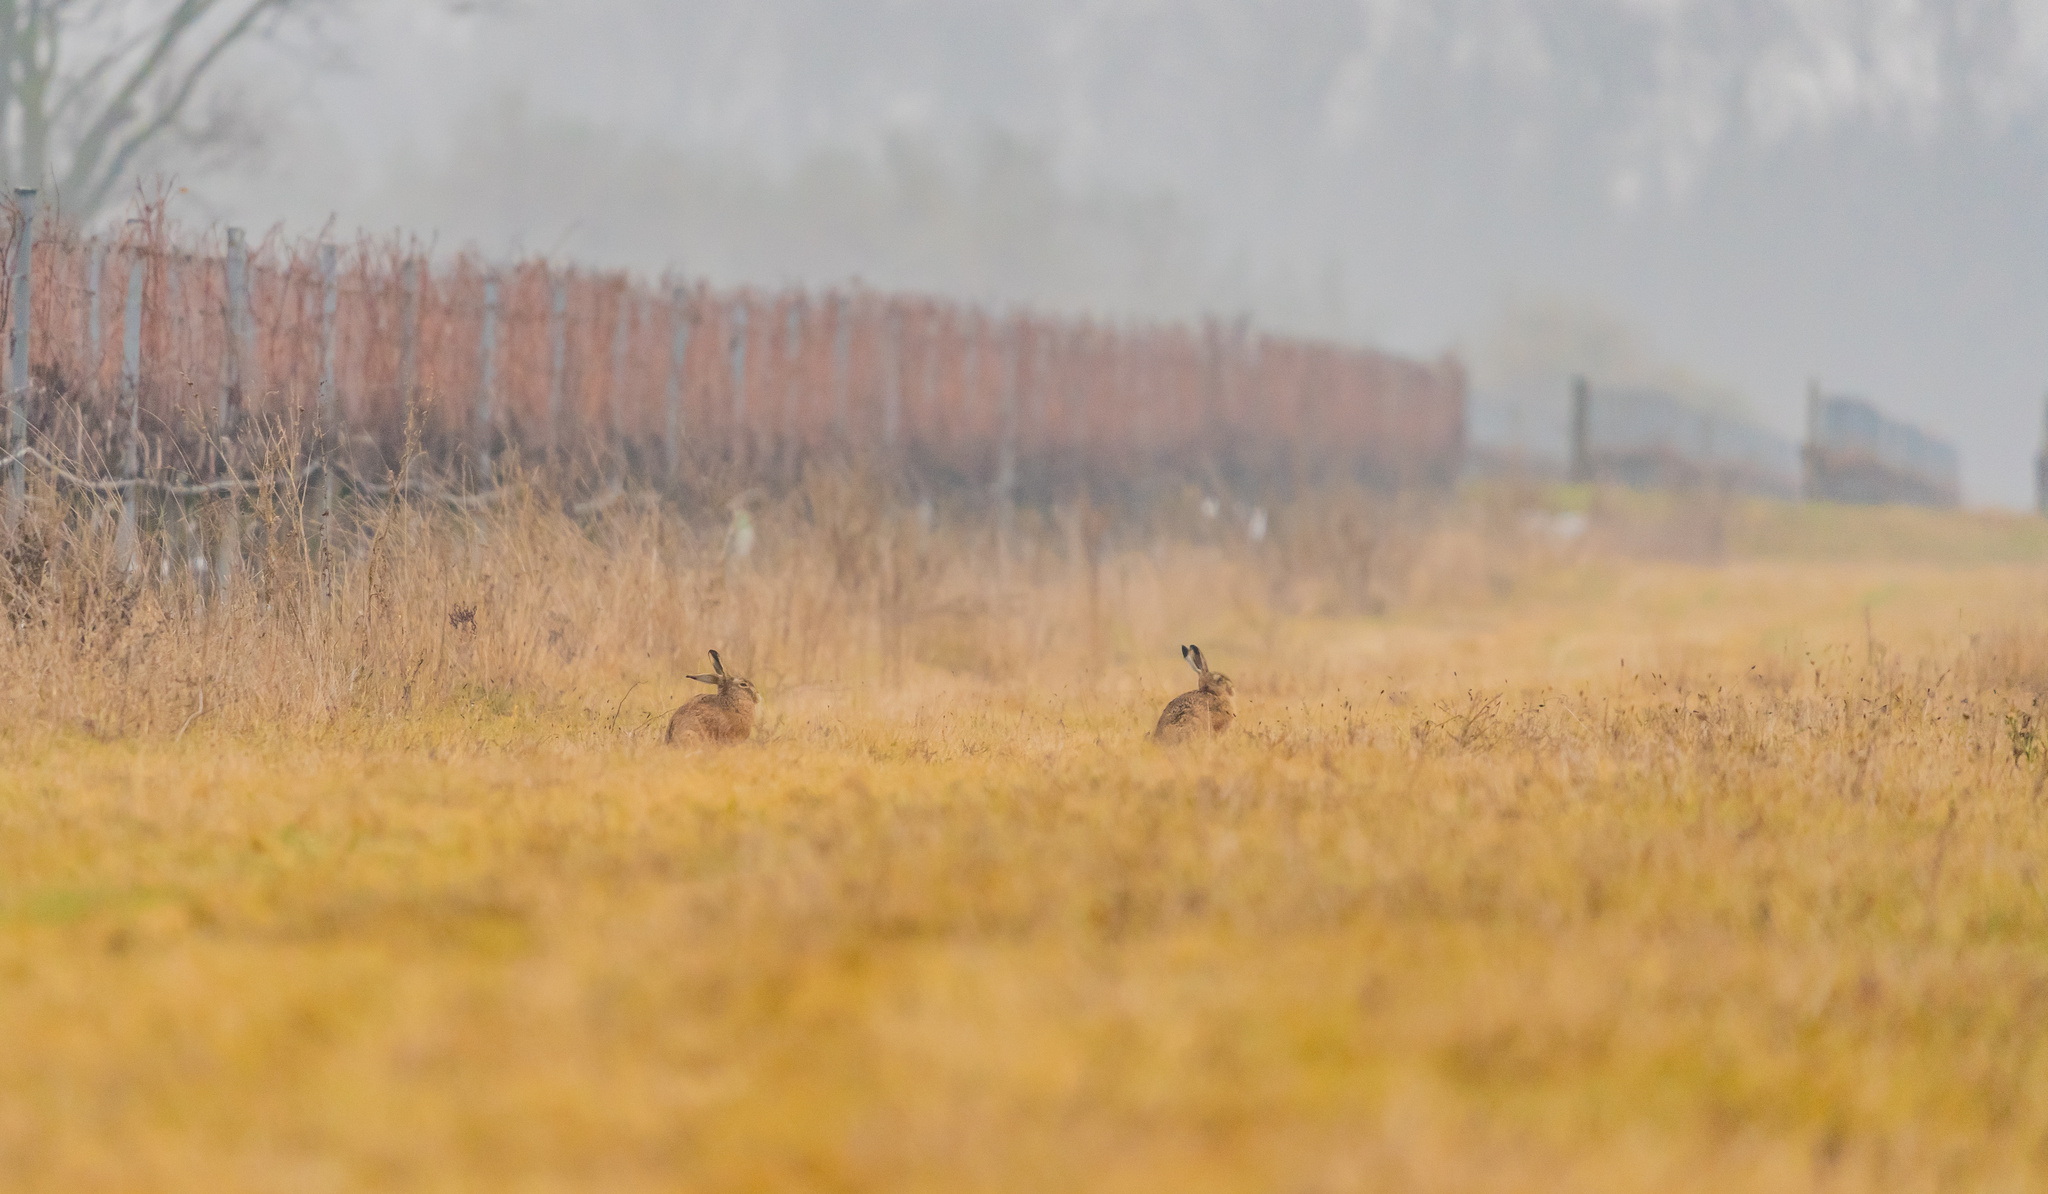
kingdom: Animalia
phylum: Chordata
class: Mammalia
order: Lagomorpha
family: Leporidae
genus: Lepus
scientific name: Lepus europaeus
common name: European hare
